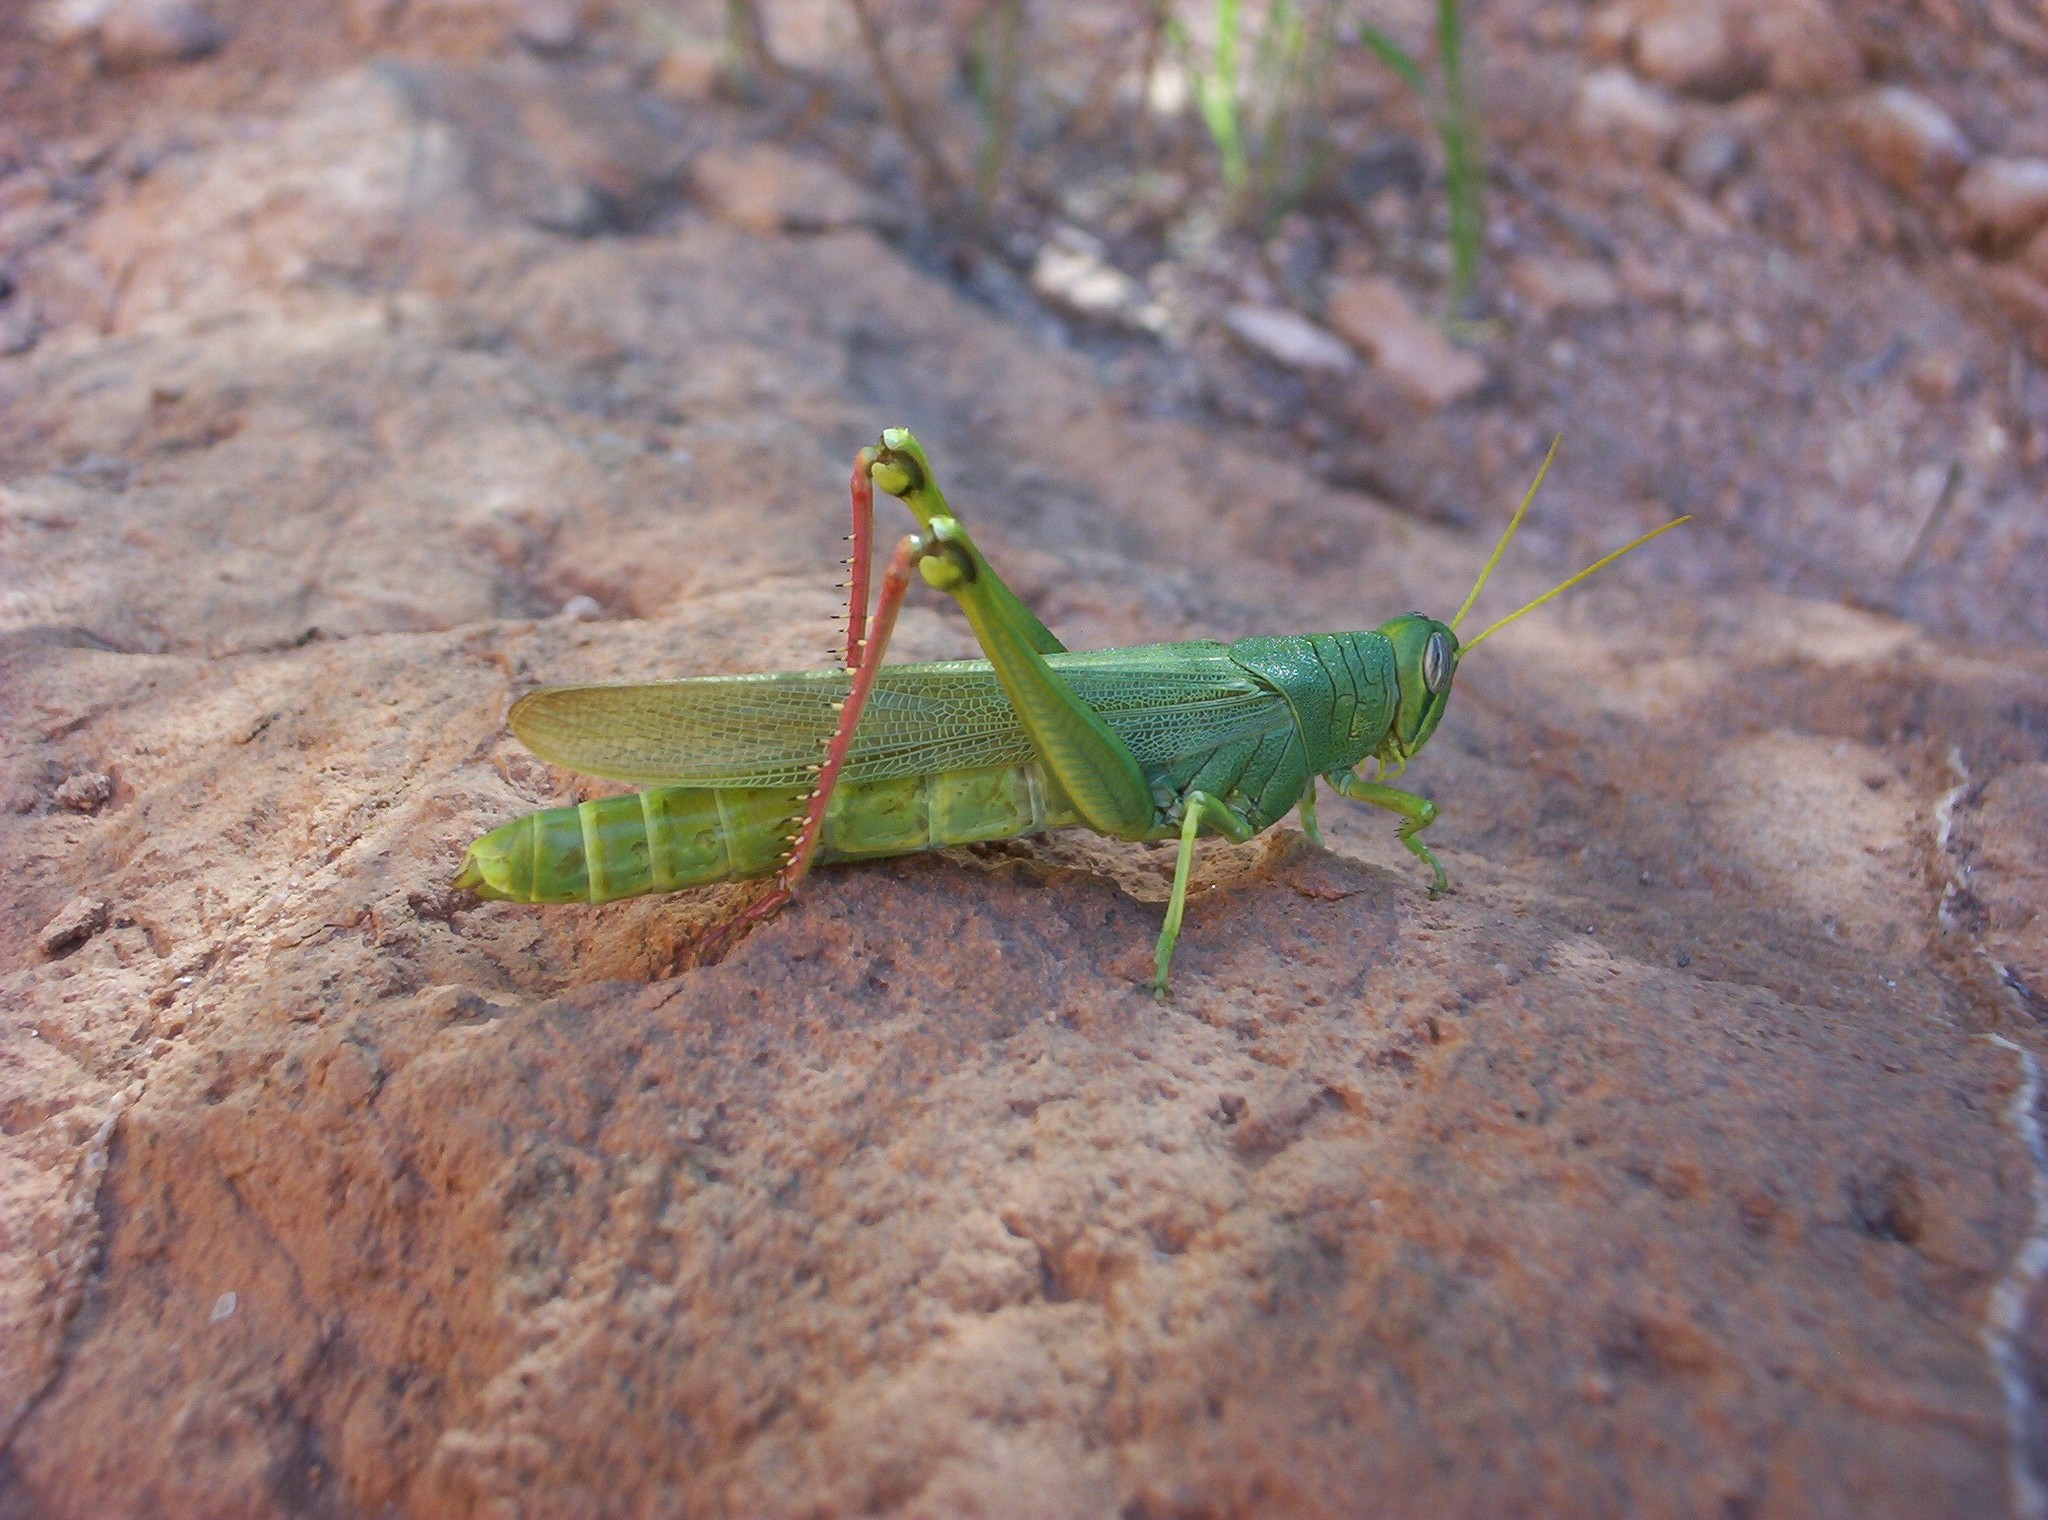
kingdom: Animalia
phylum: Arthropoda
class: Insecta
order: Orthoptera
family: Acrididae
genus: Schistocerca
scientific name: Schistocerca shoshone
